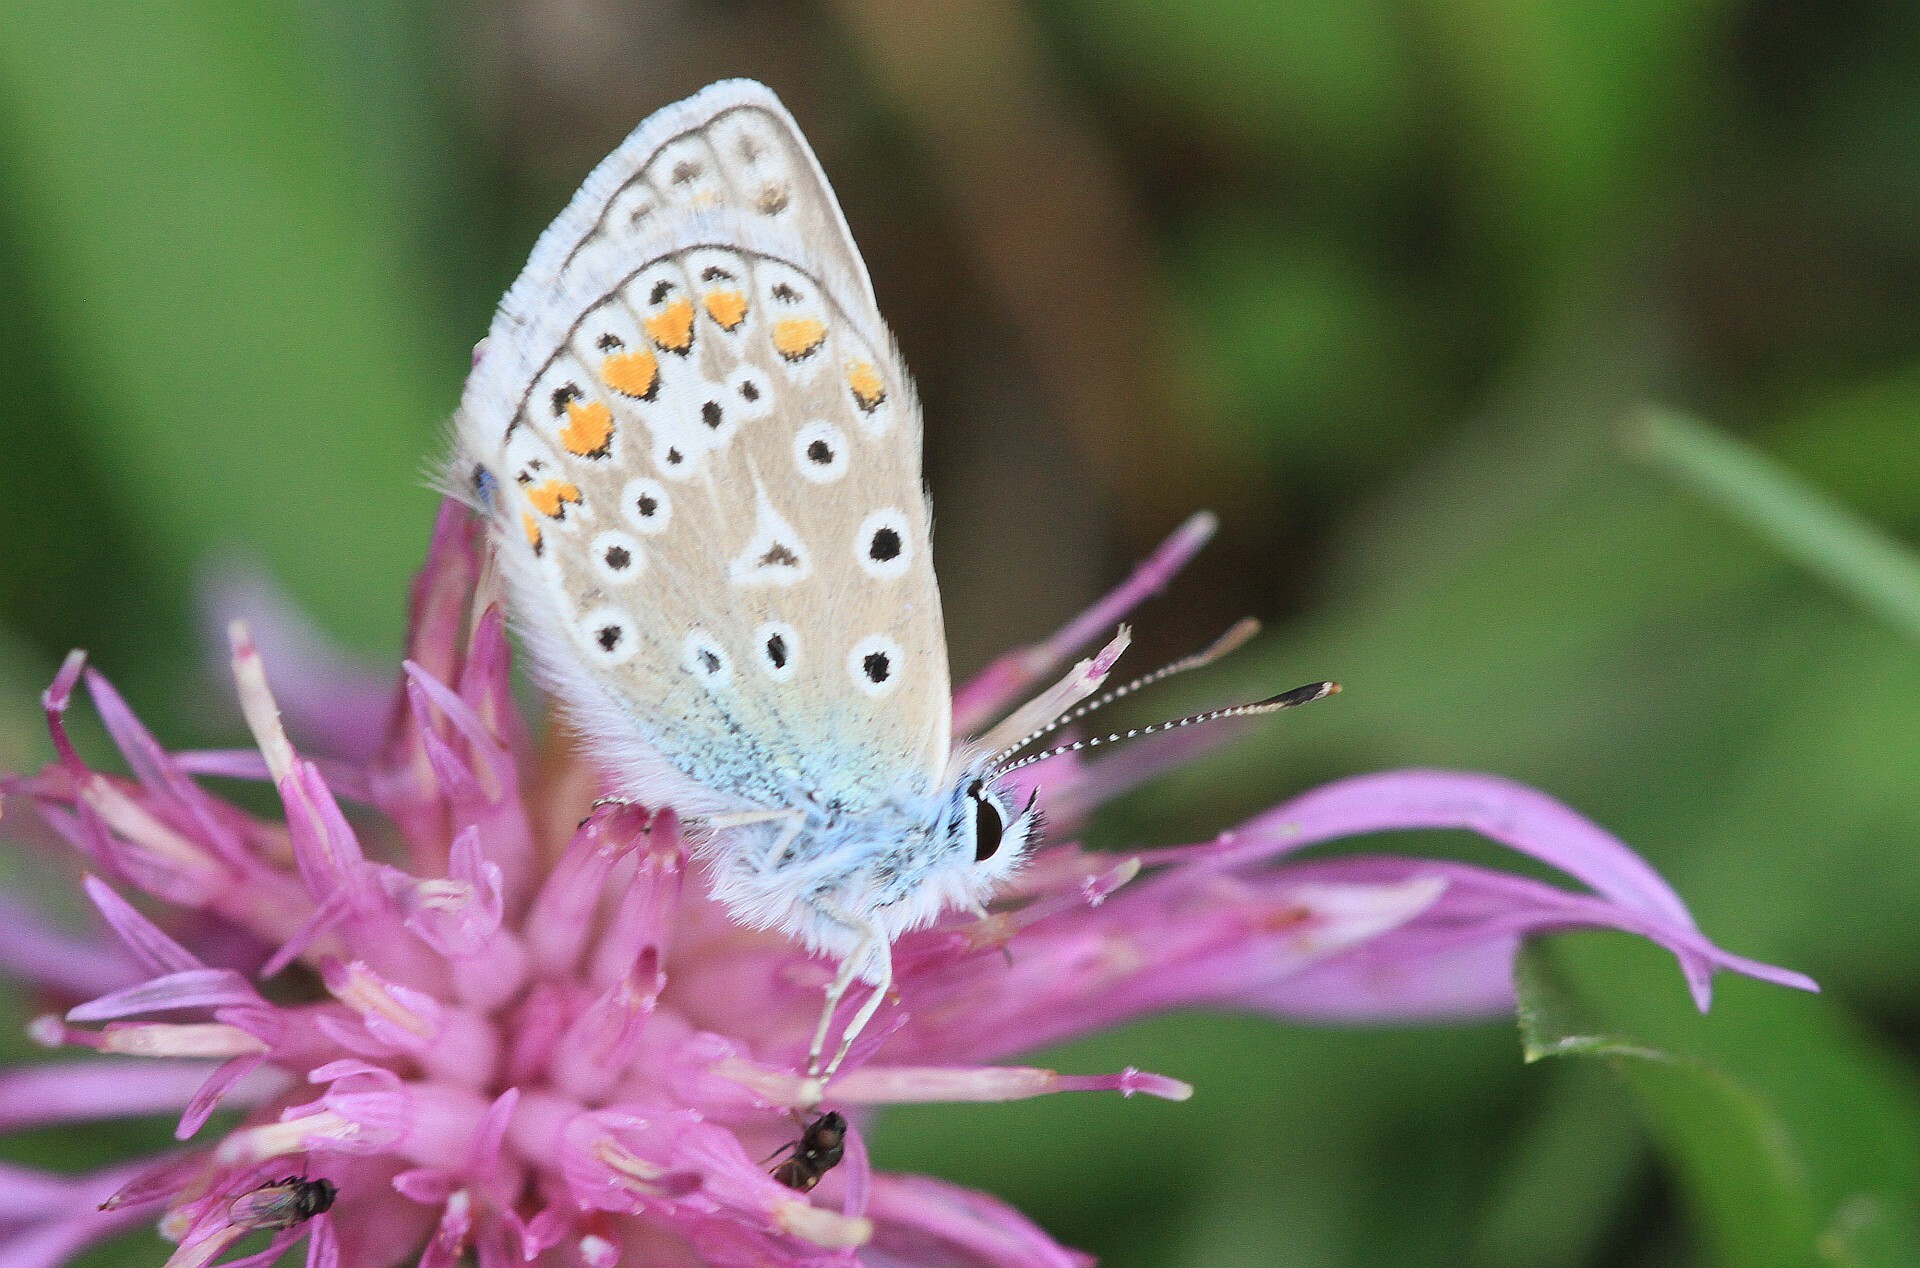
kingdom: Animalia
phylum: Arthropoda
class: Insecta
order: Lepidoptera
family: Lycaenidae
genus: Polyommatus
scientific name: Polyommatus icarus
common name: Common blue
